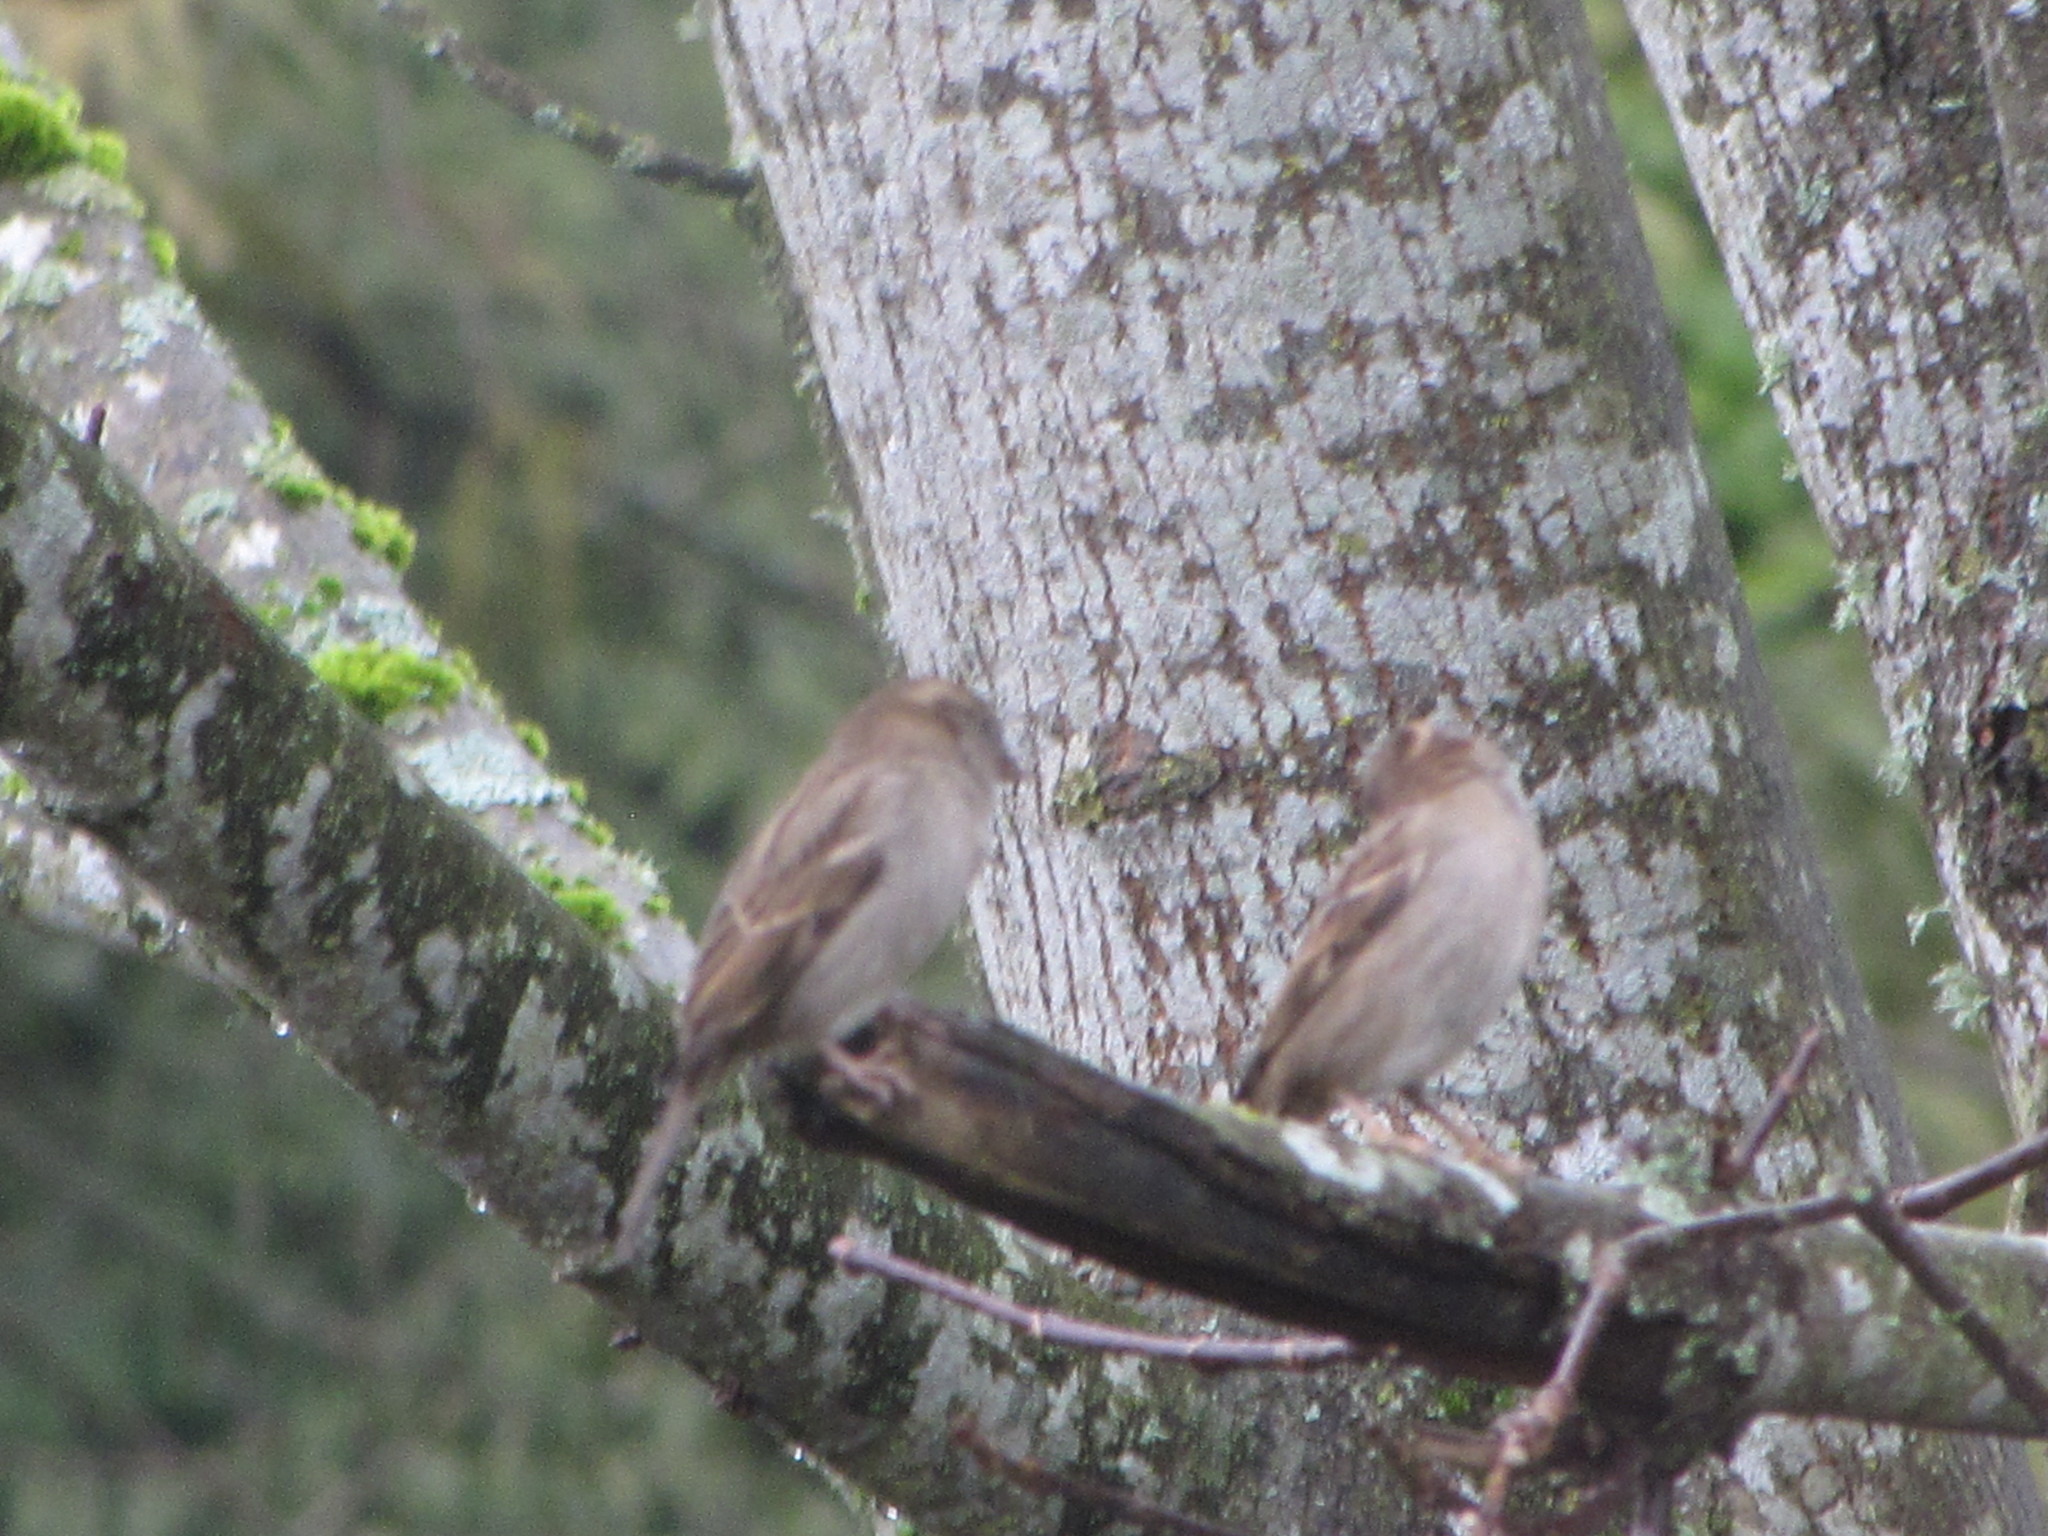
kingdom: Animalia
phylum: Chordata
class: Aves
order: Passeriformes
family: Passeridae
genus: Passer
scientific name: Passer domesticus
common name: House sparrow
